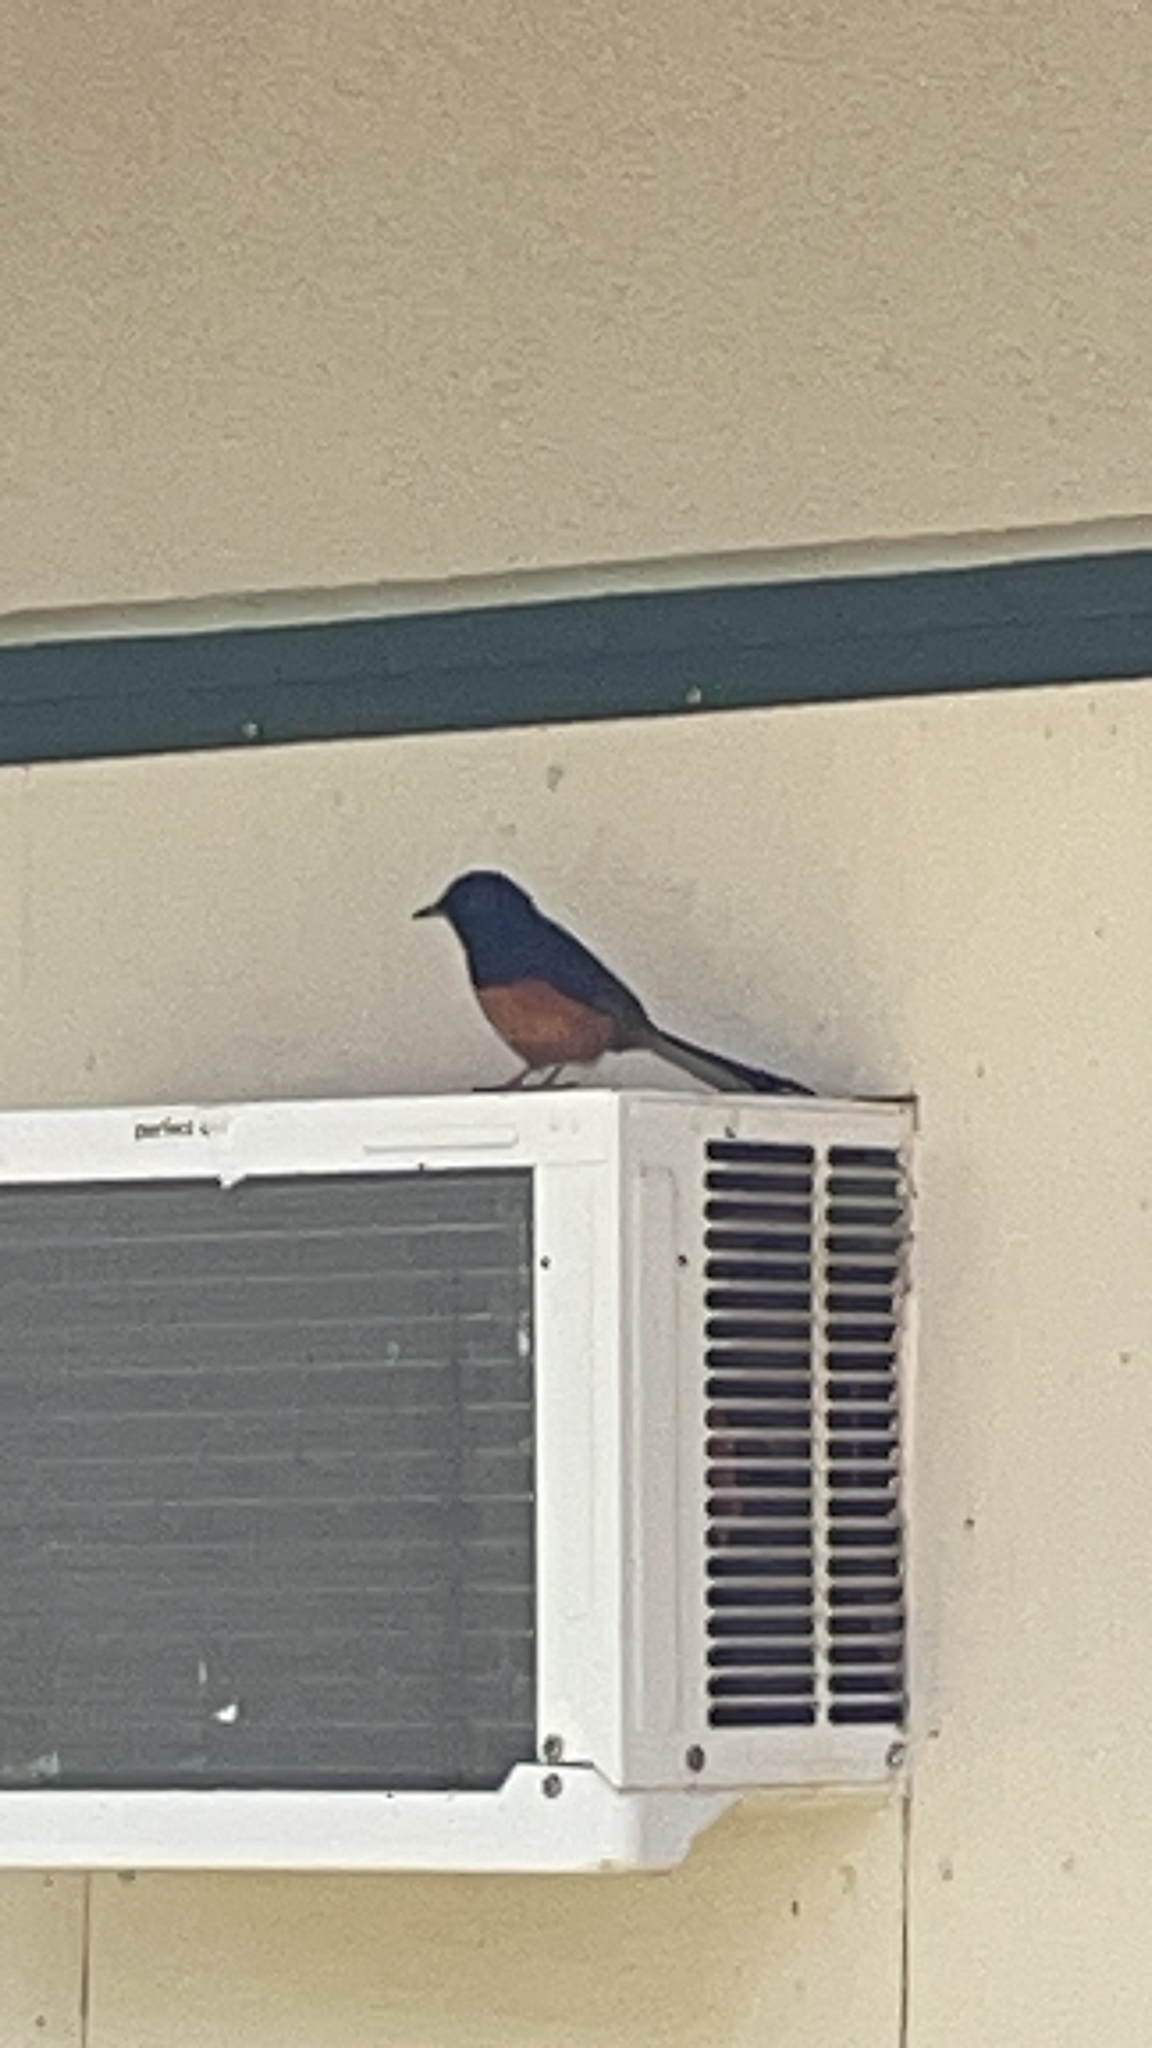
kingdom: Animalia
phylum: Chordata
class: Aves
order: Passeriformes
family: Muscicapidae
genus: Copsychus
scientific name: Copsychus malabaricus
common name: White-rumped shama
